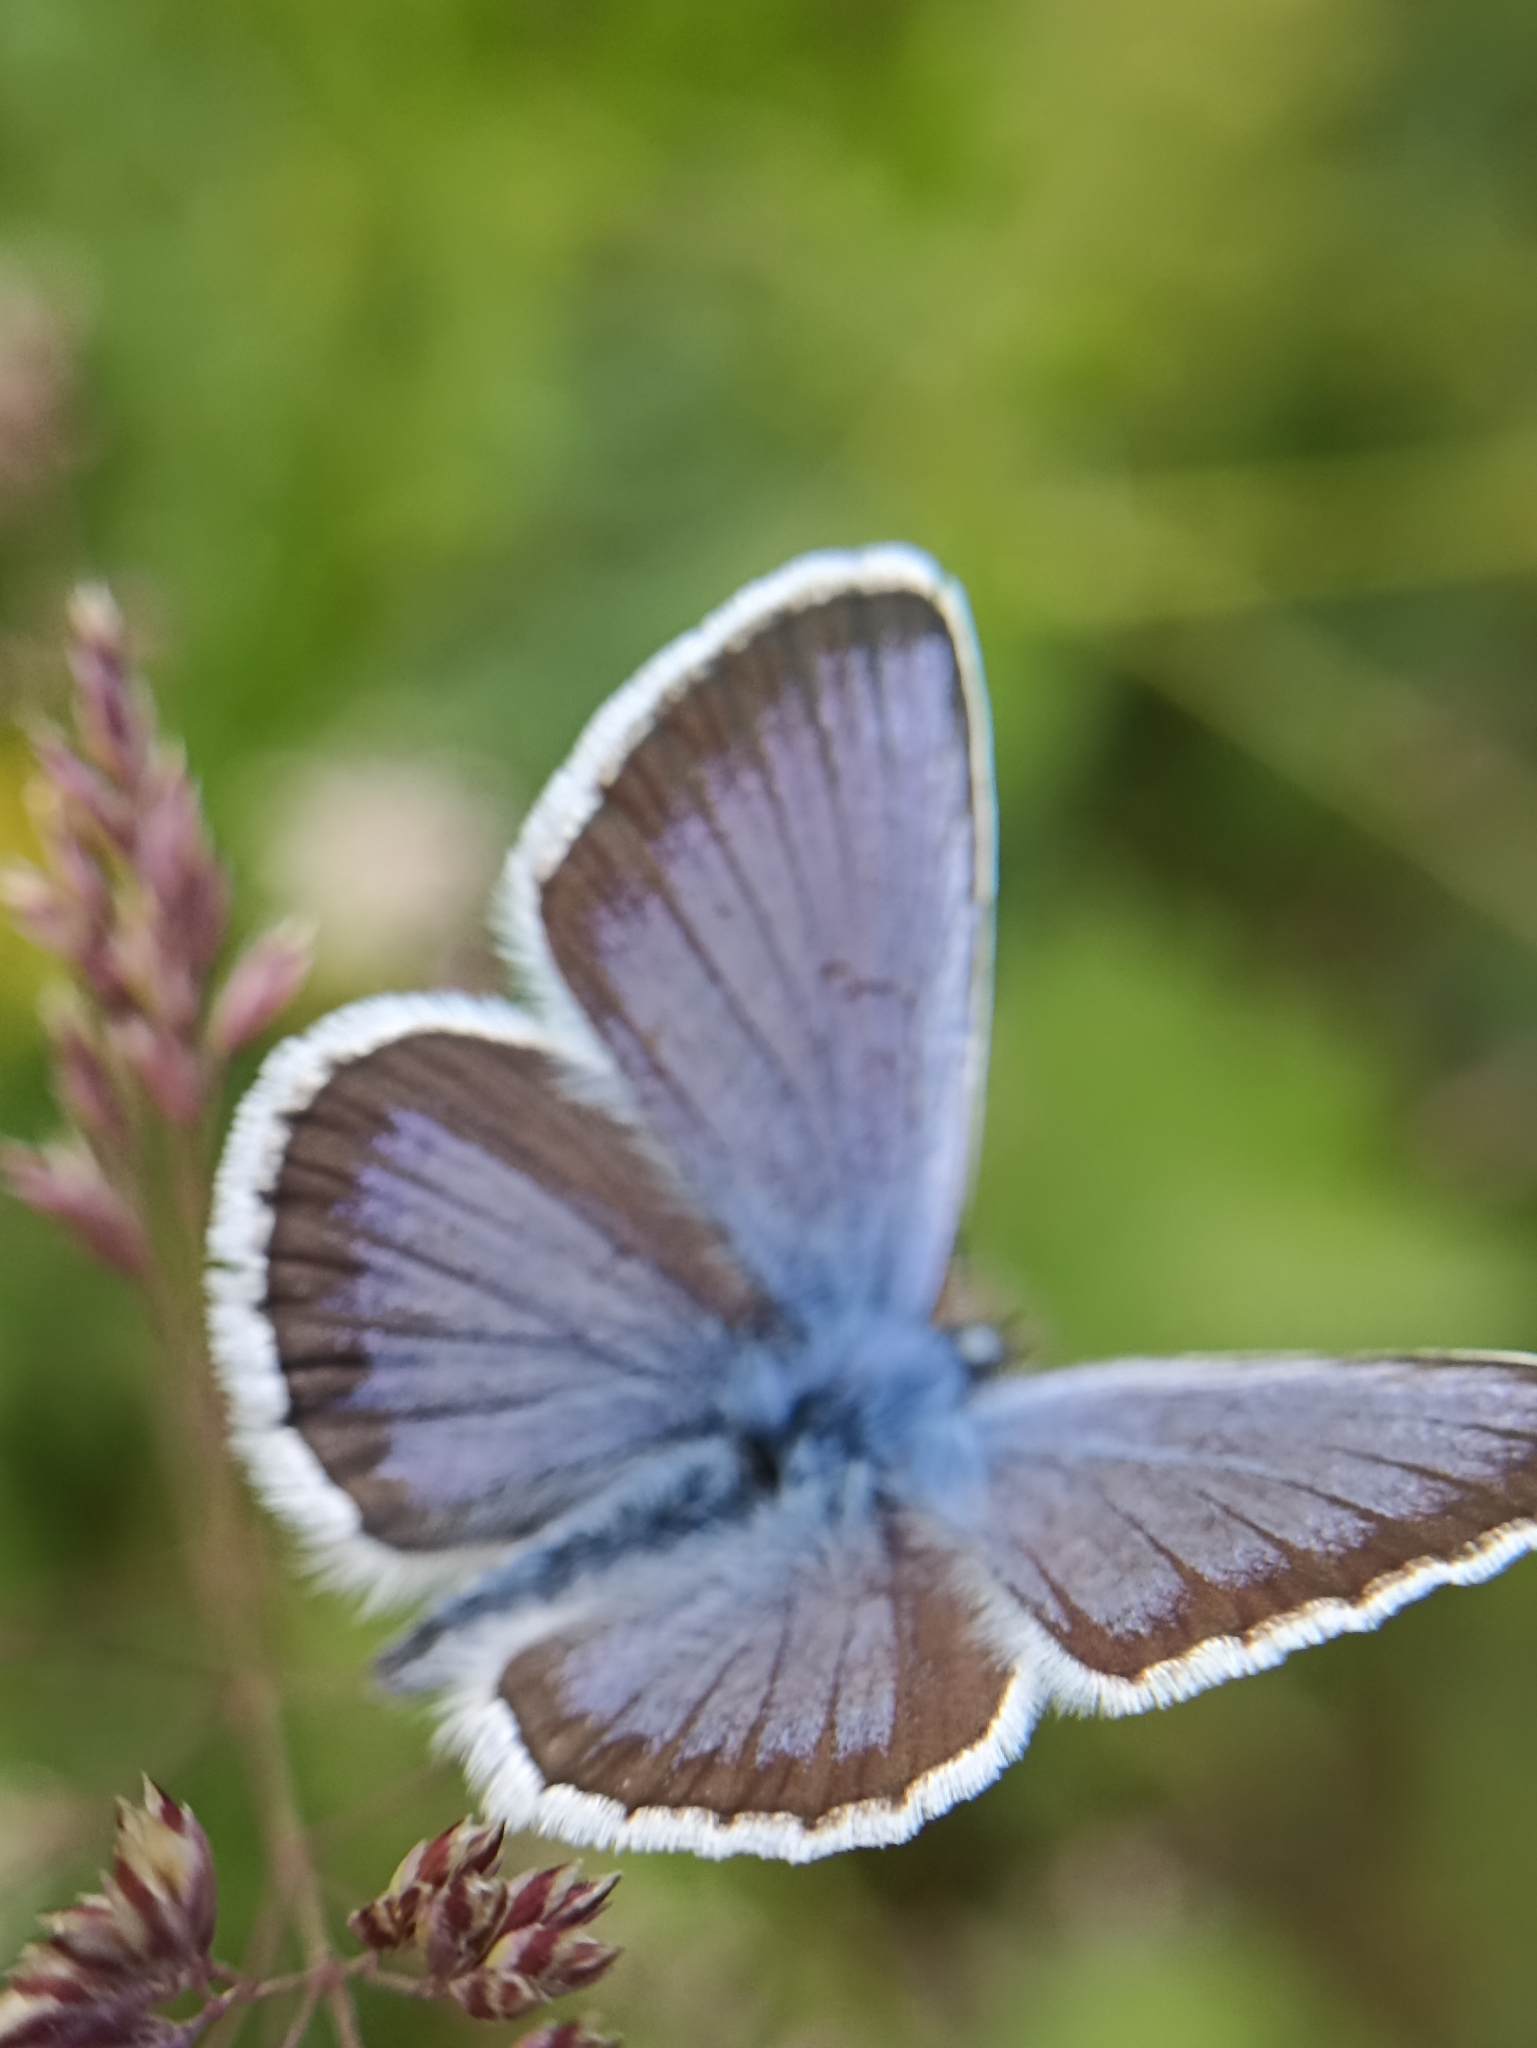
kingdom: Animalia
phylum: Arthropoda
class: Insecta
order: Lepidoptera
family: Lycaenidae
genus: Plebejus
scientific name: Plebejus argus
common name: Silver-studded blue
